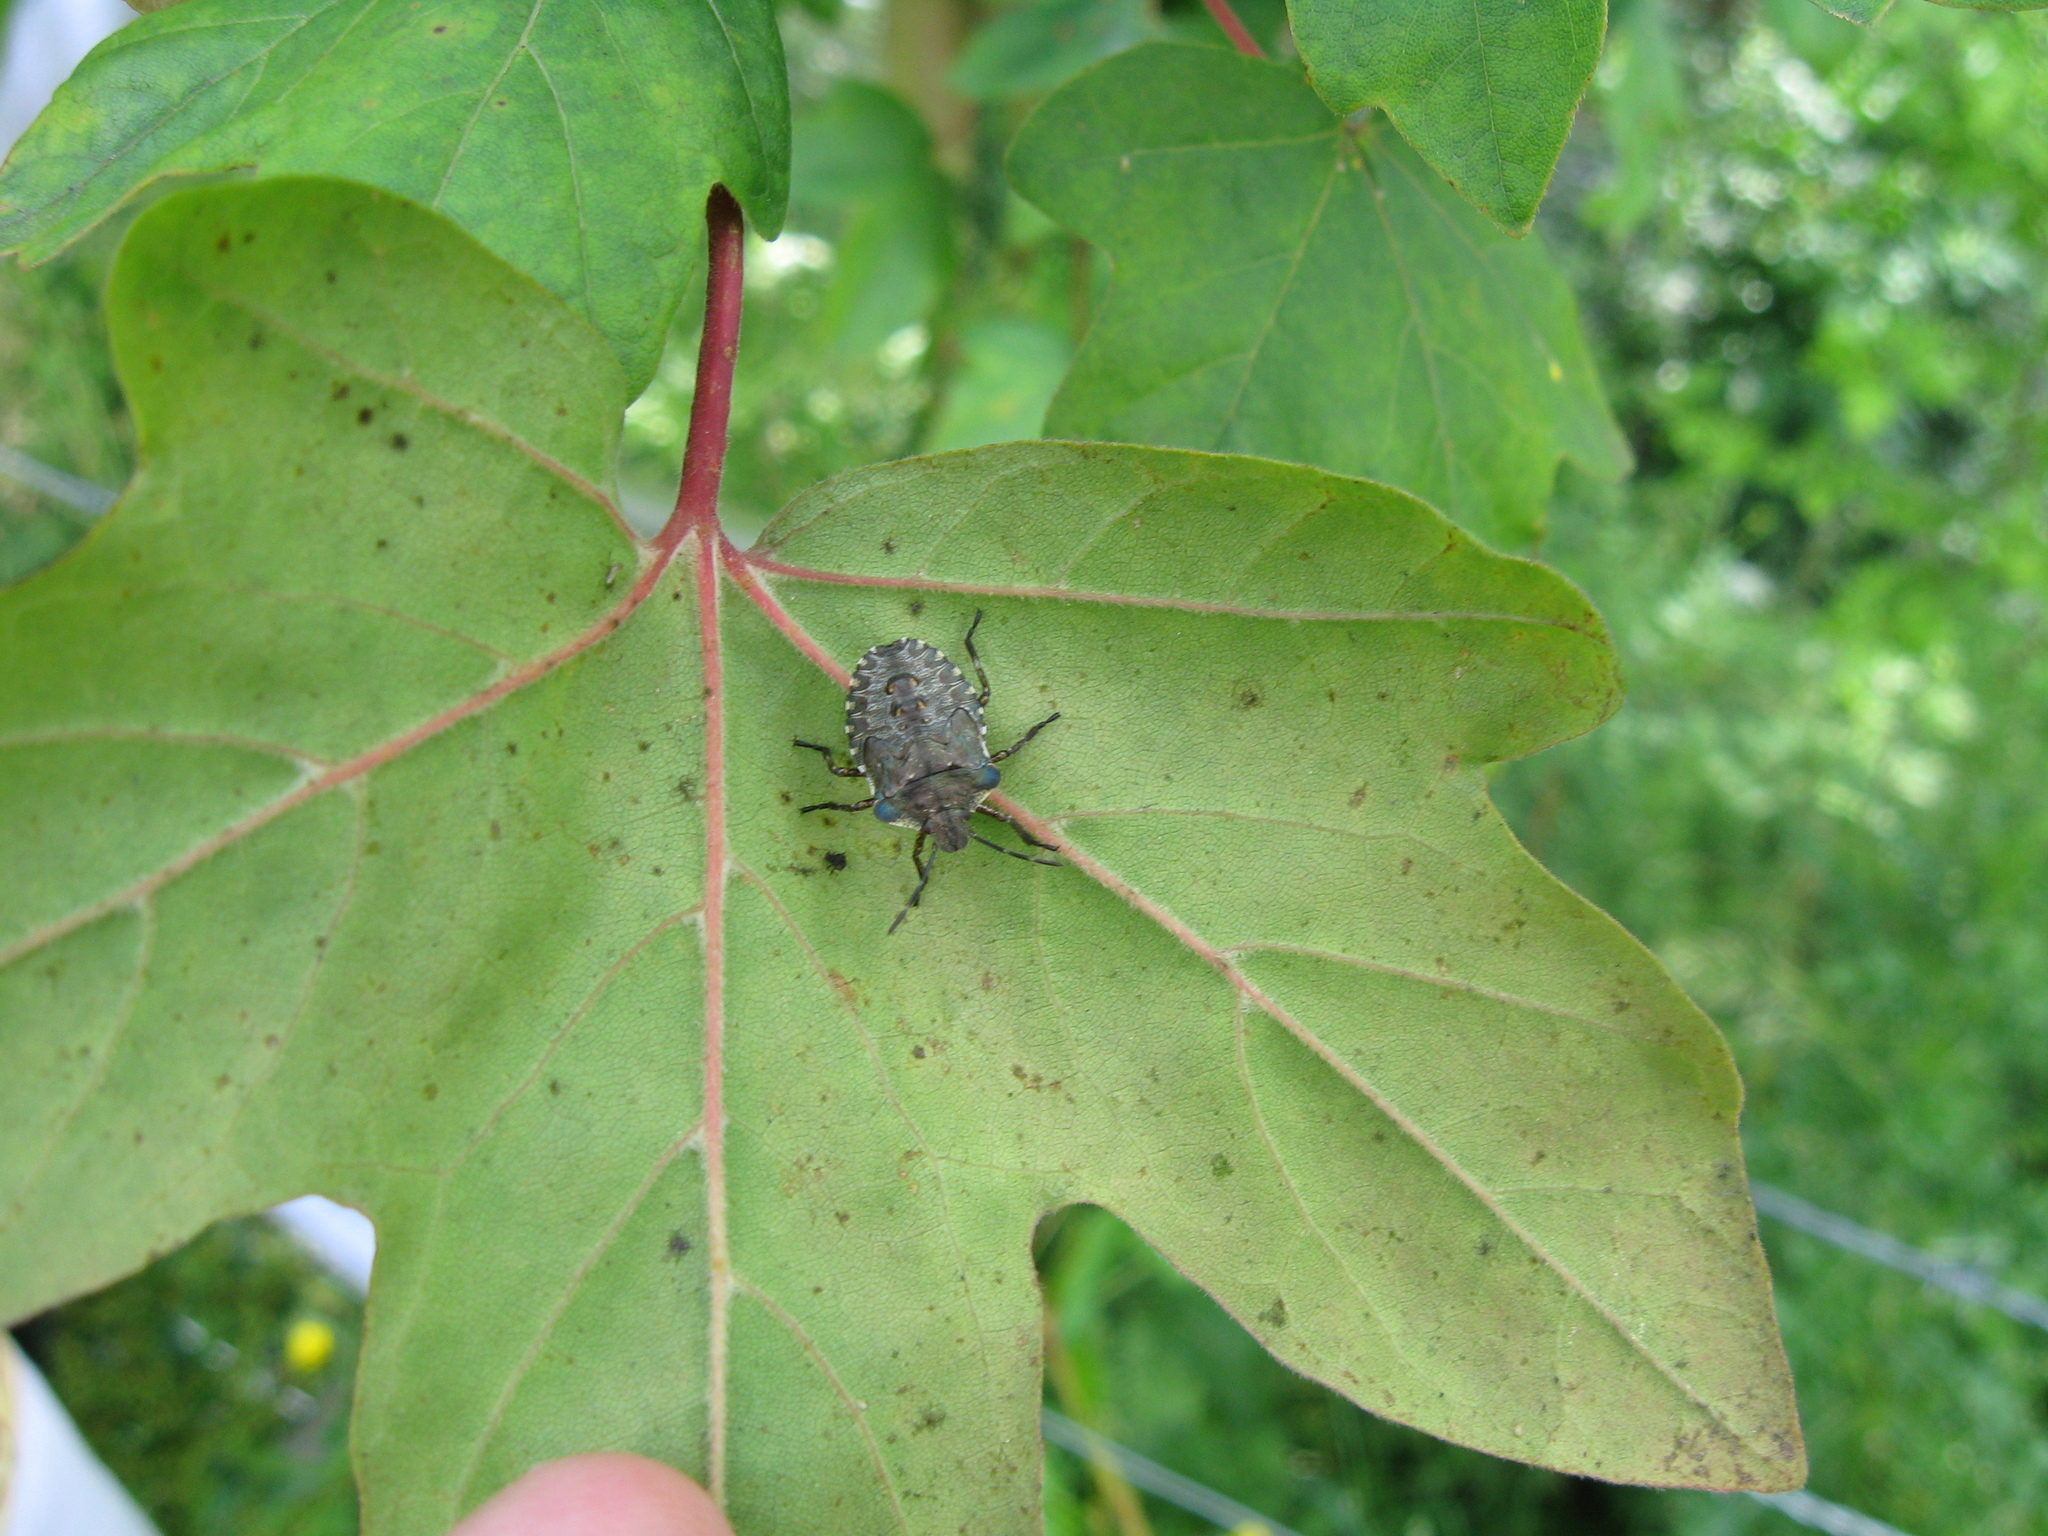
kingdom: Animalia
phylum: Arthropoda
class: Insecta
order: Hemiptera
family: Pentatomidae
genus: Pentatoma
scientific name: Pentatoma rufipes
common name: Forest bug
